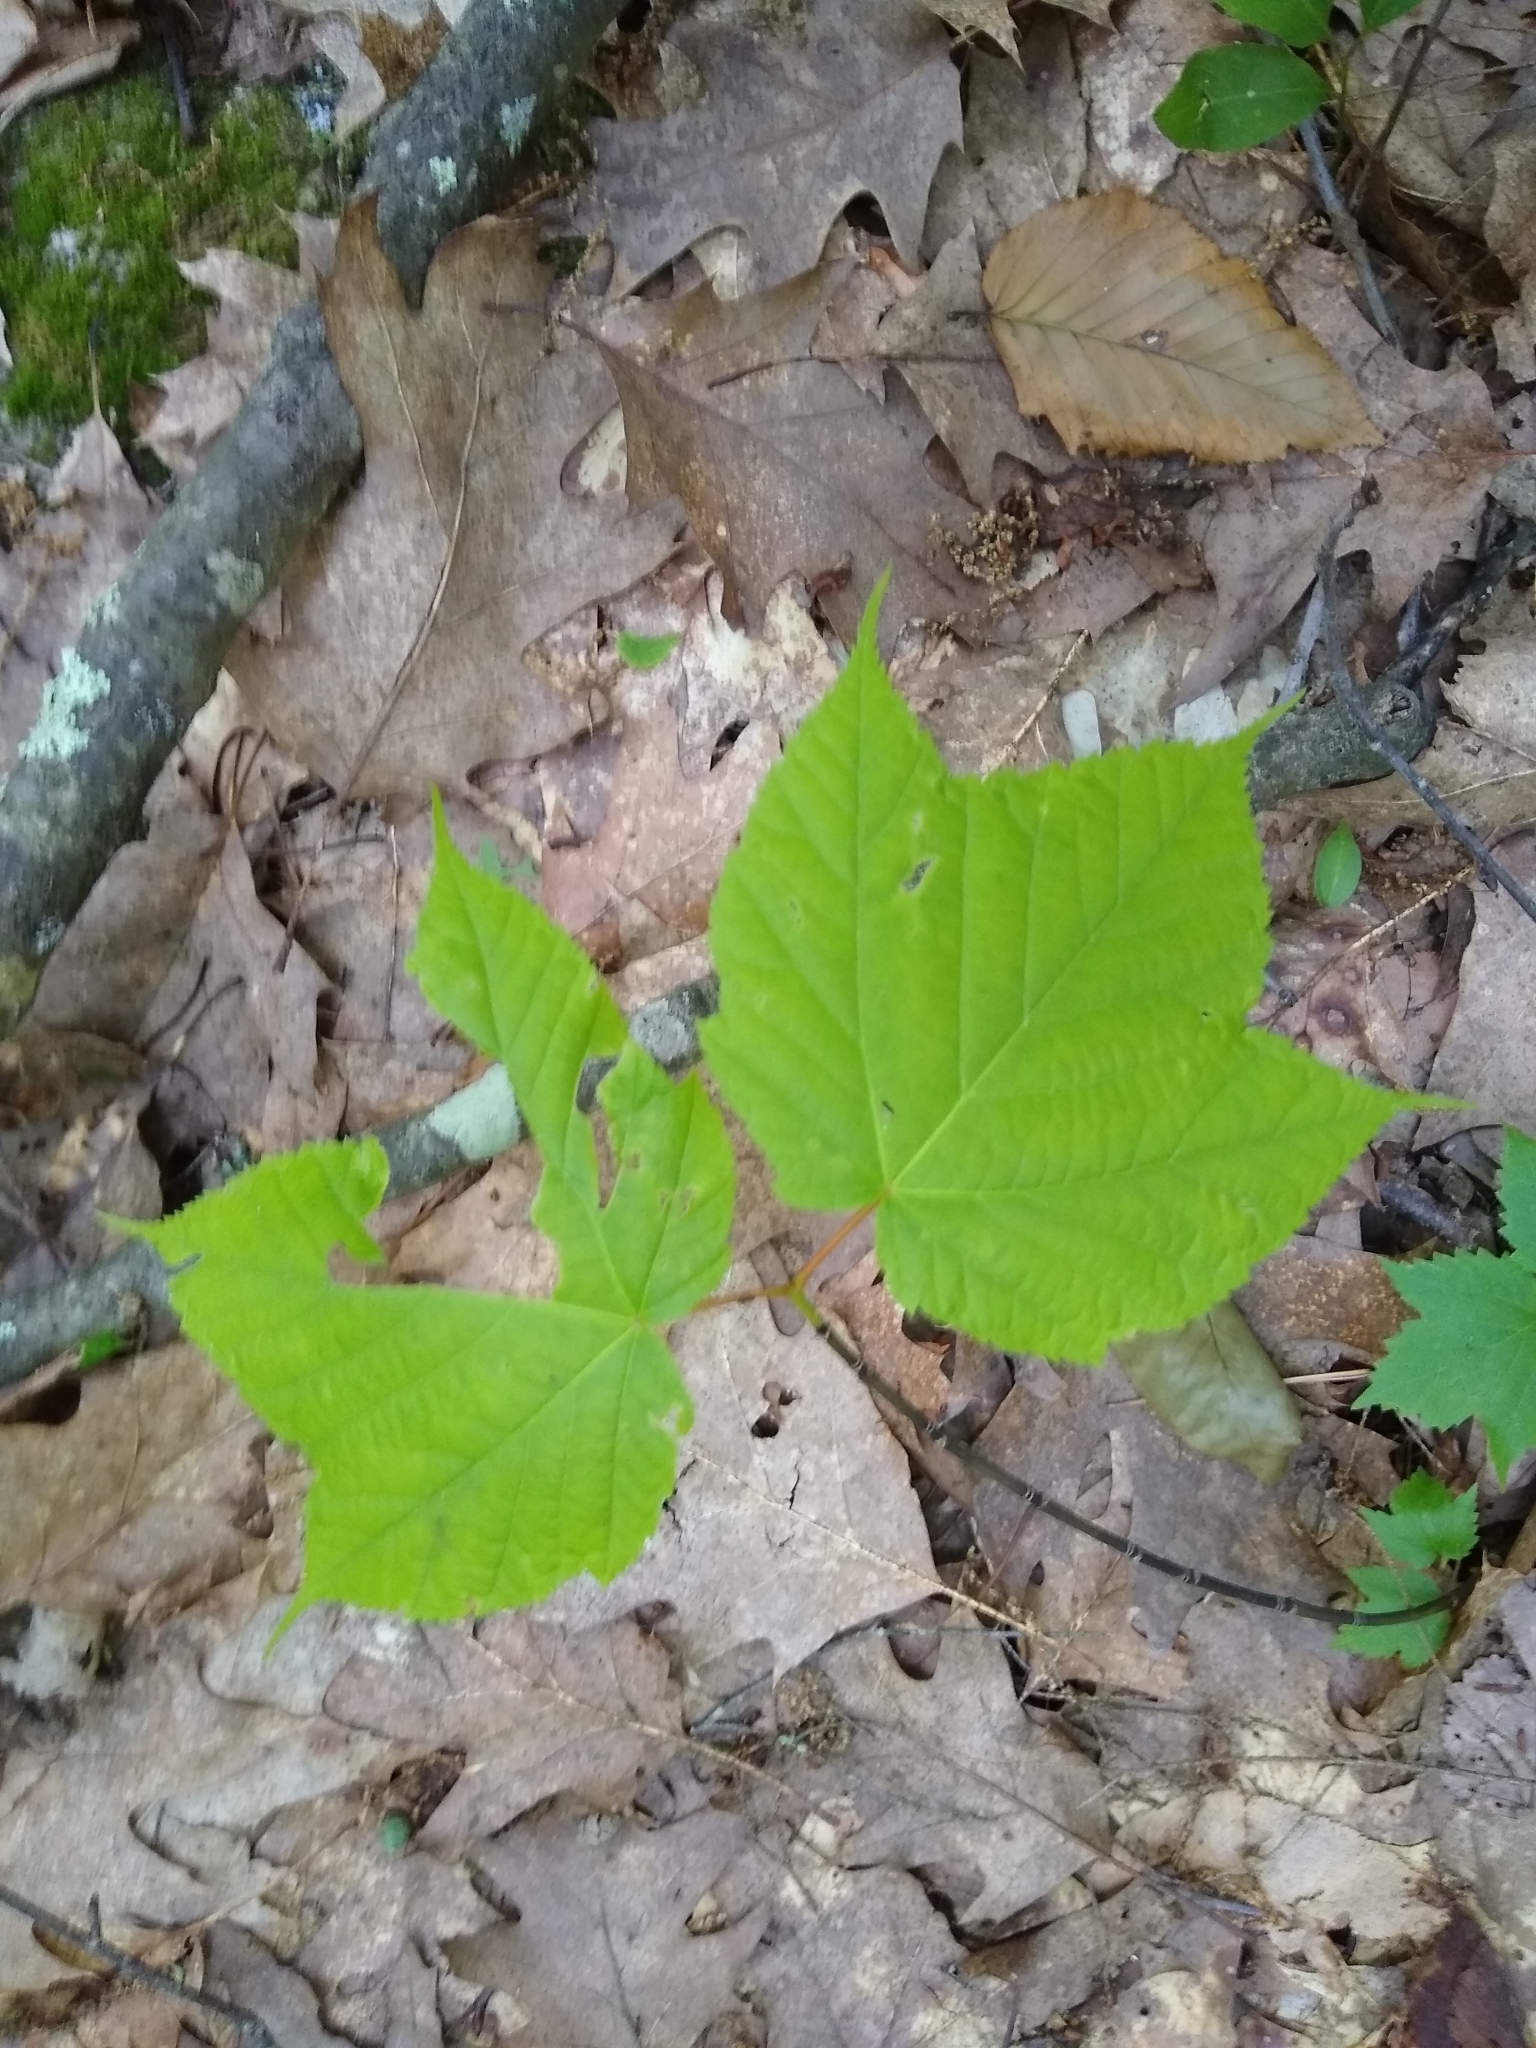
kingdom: Plantae
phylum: Tracheophyta
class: Magnoliopsida
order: Sapindales
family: Sapindaceae
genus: Acer
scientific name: Acer pensylvanicum
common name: Moosewood
